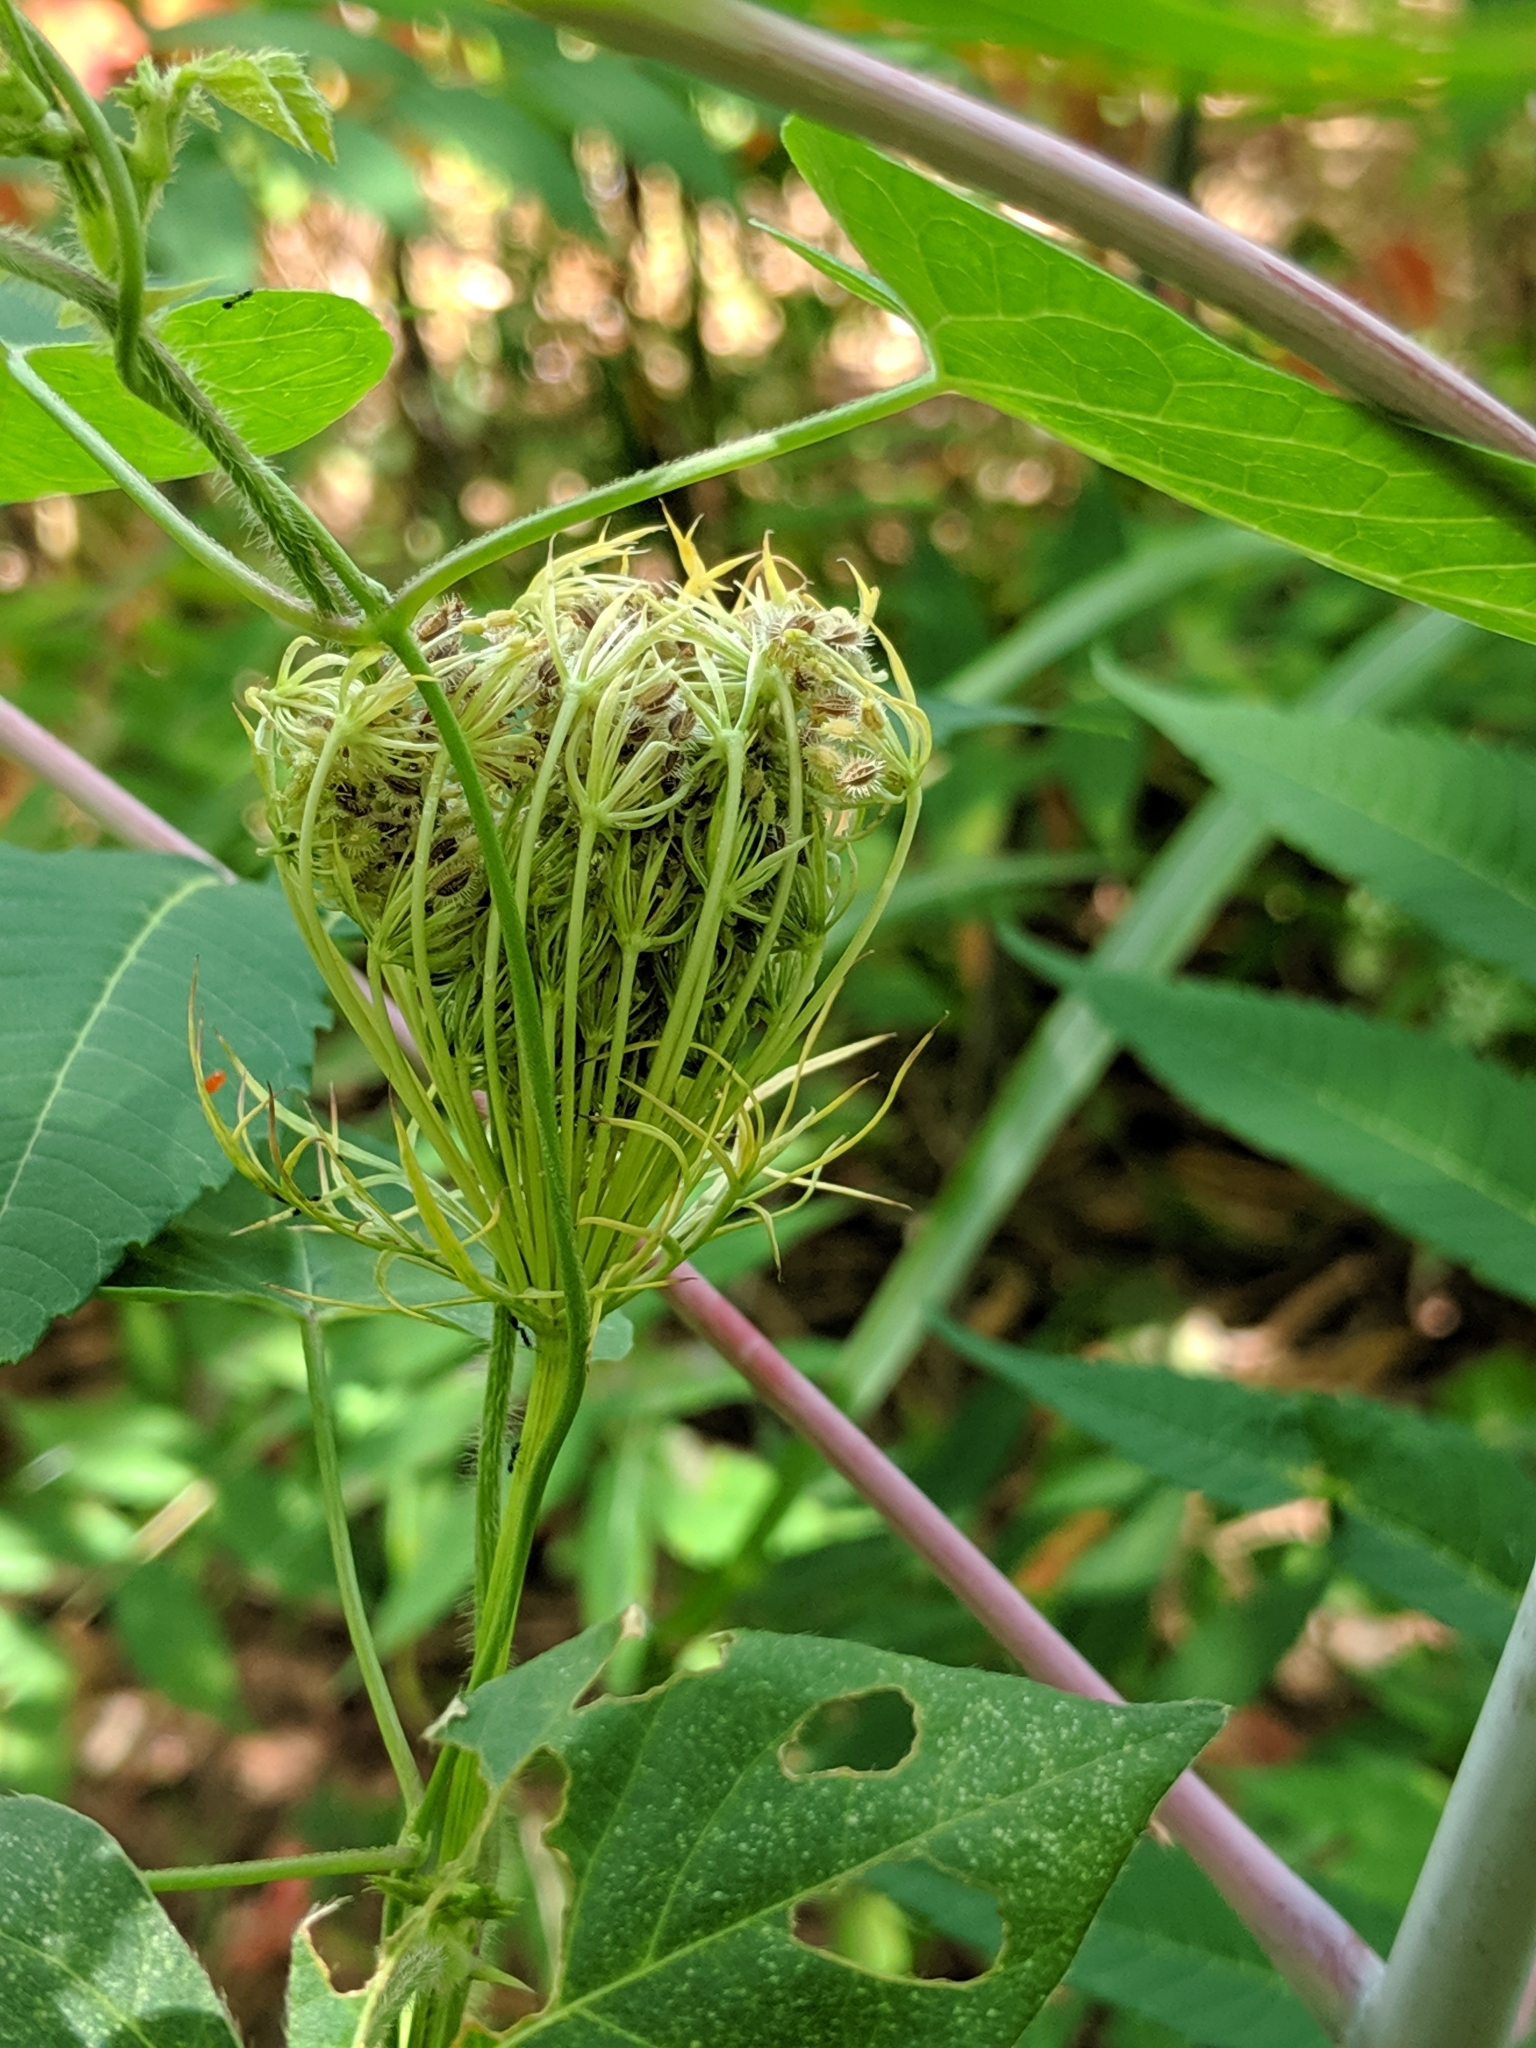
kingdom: Plantae
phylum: Tracheophyta
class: Magnoliopsida
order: Apiales
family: Apiaceae
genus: Daucus
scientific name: Daucus carota
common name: Wild carrot
